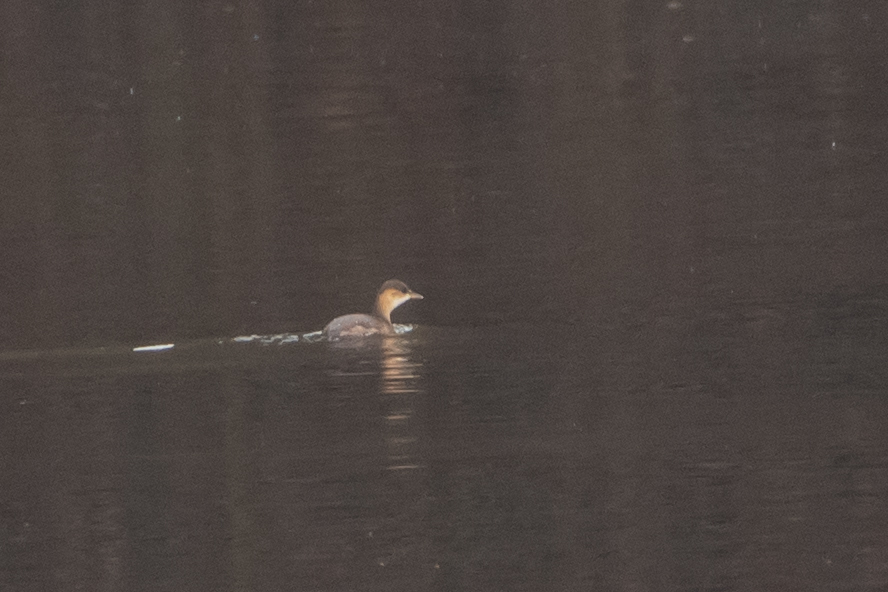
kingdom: Animalia
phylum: Chordata
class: Aves
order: Podicipediformes
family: Podicipedidae
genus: Tachybaptus
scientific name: Tachybaptus ruficollis
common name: Little grebe
